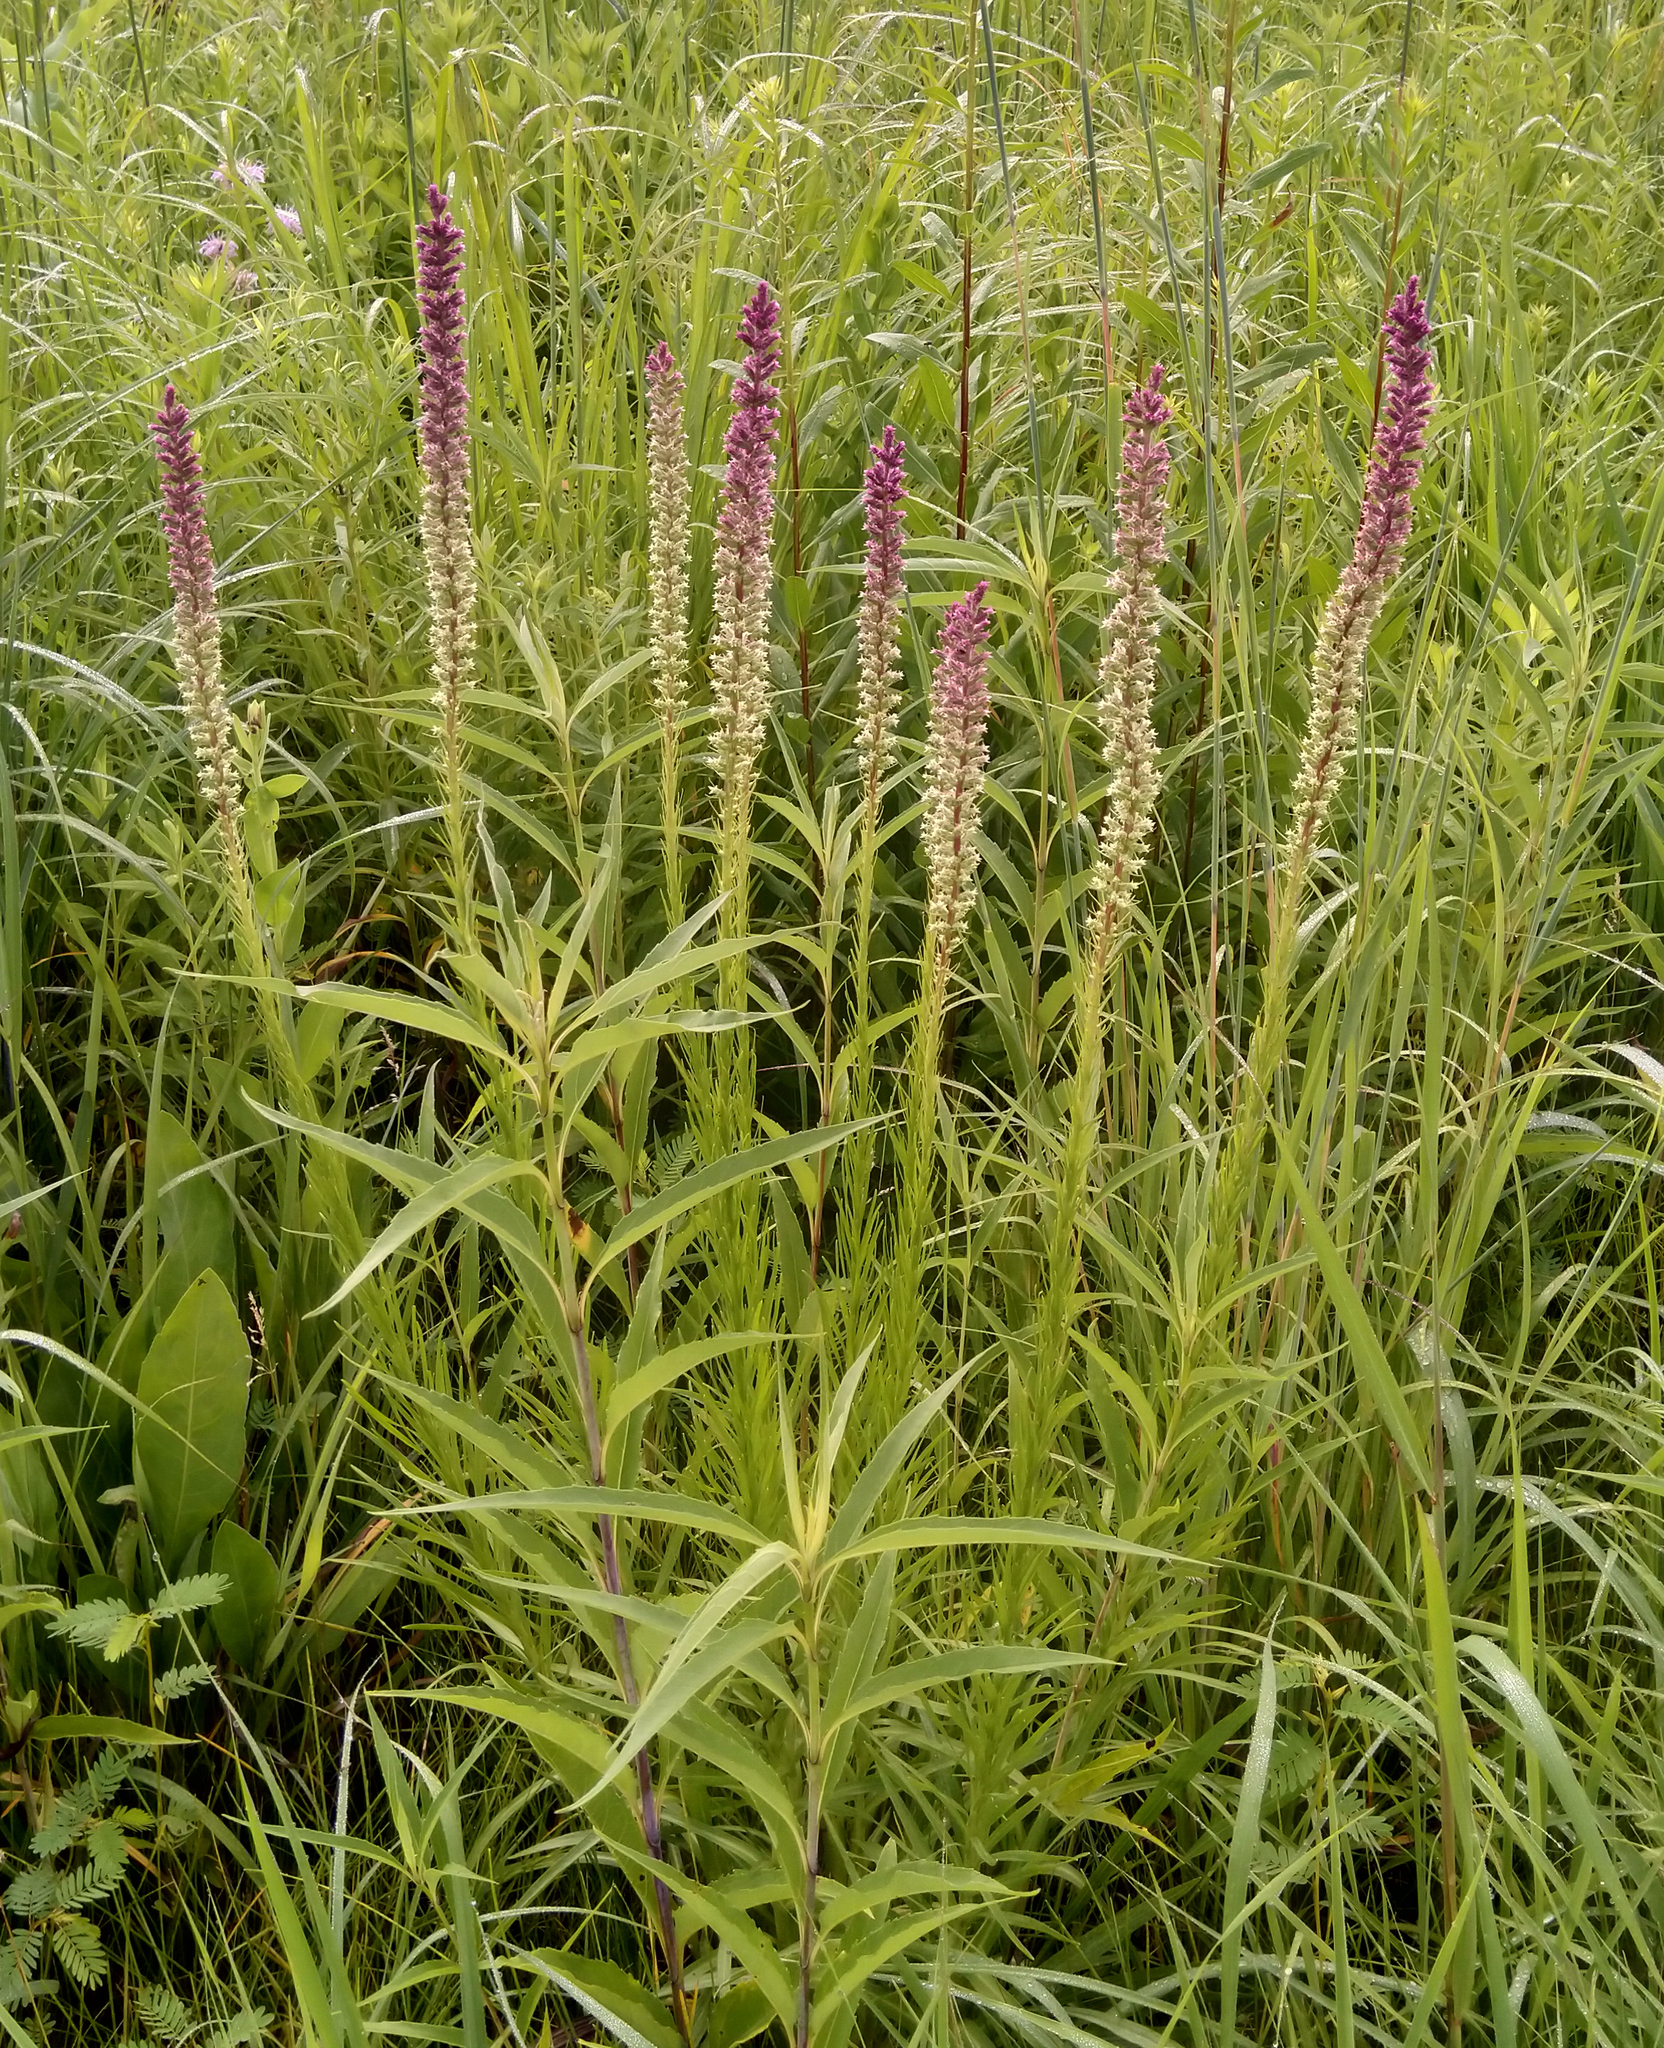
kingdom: Plantae
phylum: Tracheophyta
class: Magnoliopsida
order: Asterales
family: Asteraceae
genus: Liatris
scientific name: Liatris pycnostachya
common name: Cattail gayfeather
